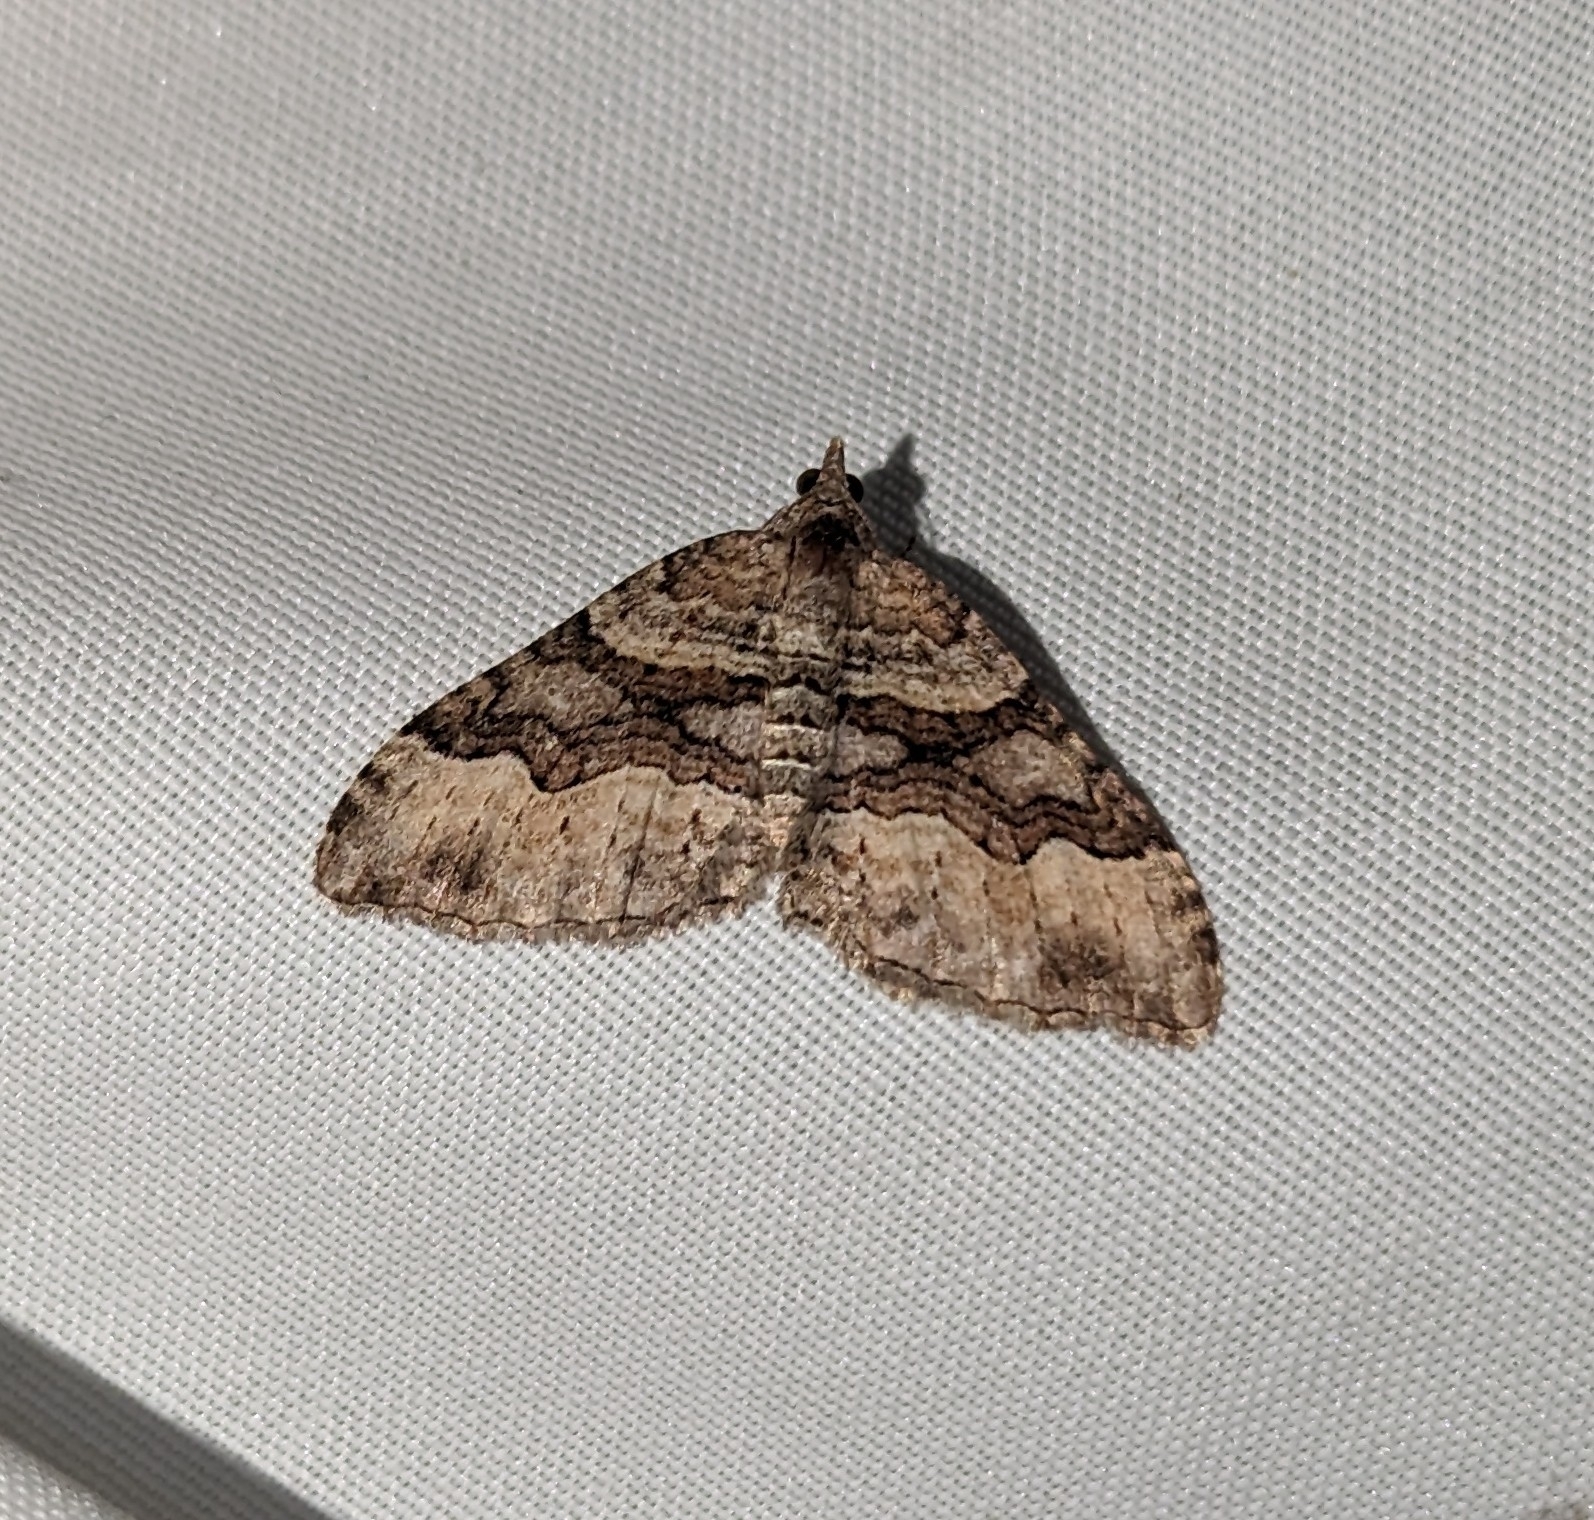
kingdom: Animalia
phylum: Arthropoda
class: Insecta
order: Lepidoptera
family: Geometridae
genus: Xanthorhoe
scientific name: Xanthorhoe defensaria
